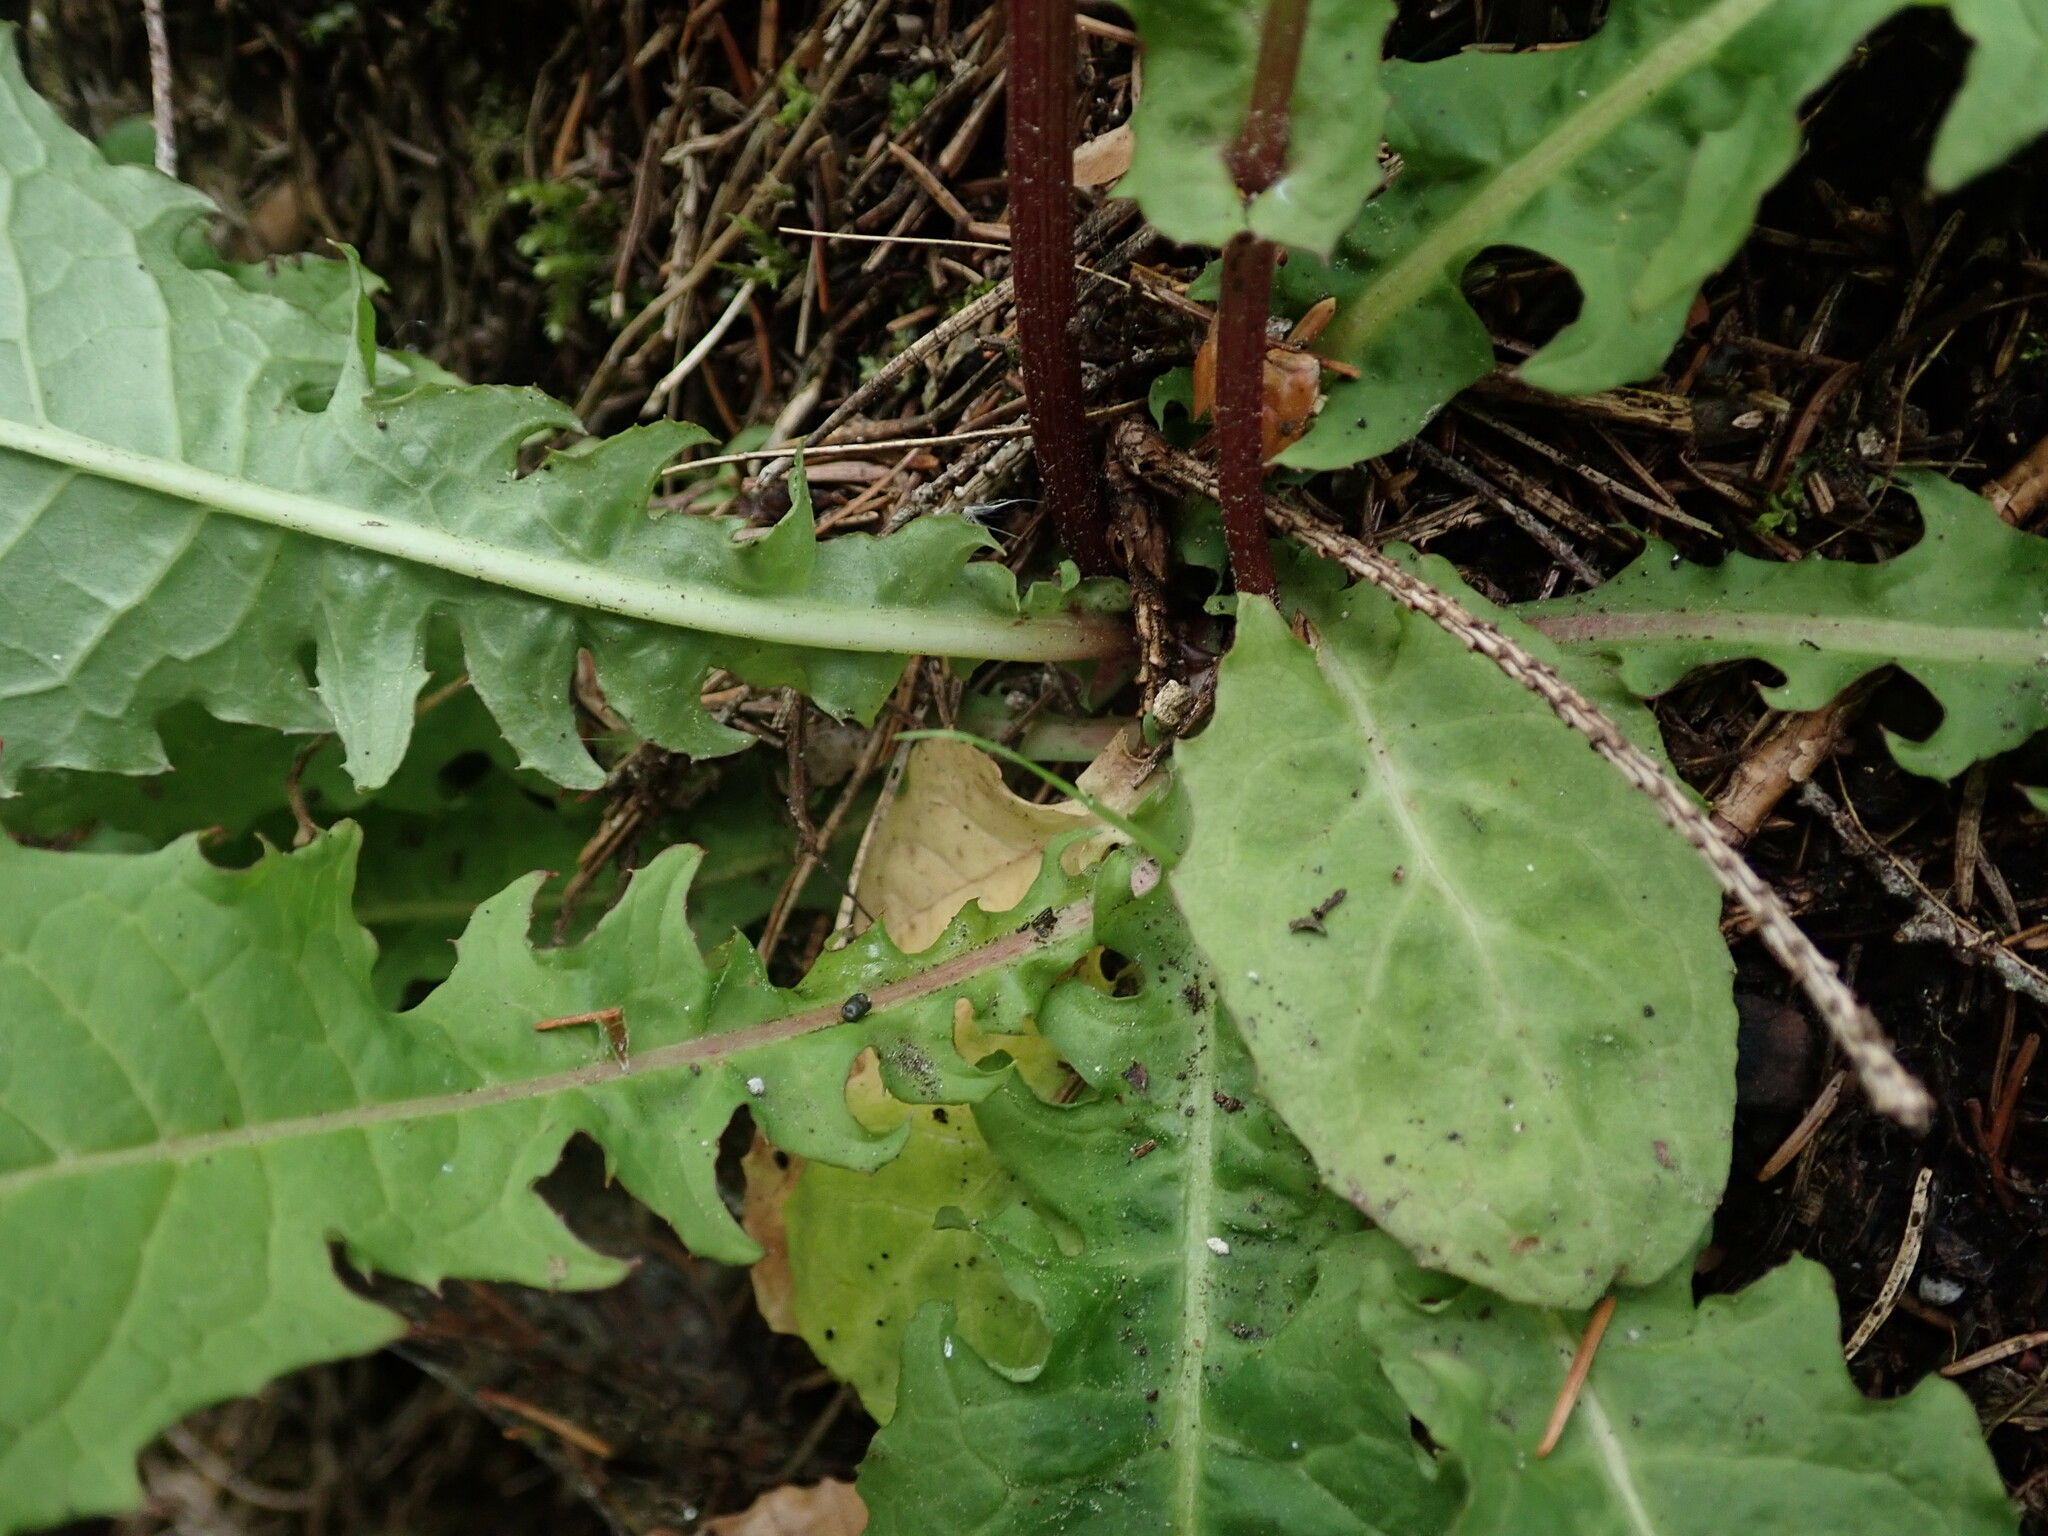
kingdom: Plantae
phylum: Tracheophyta
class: Magnoliopsida
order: Asterales
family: Asteraceae
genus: Crepis
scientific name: Crepis paludosa
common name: Marsh hawk's-beard
